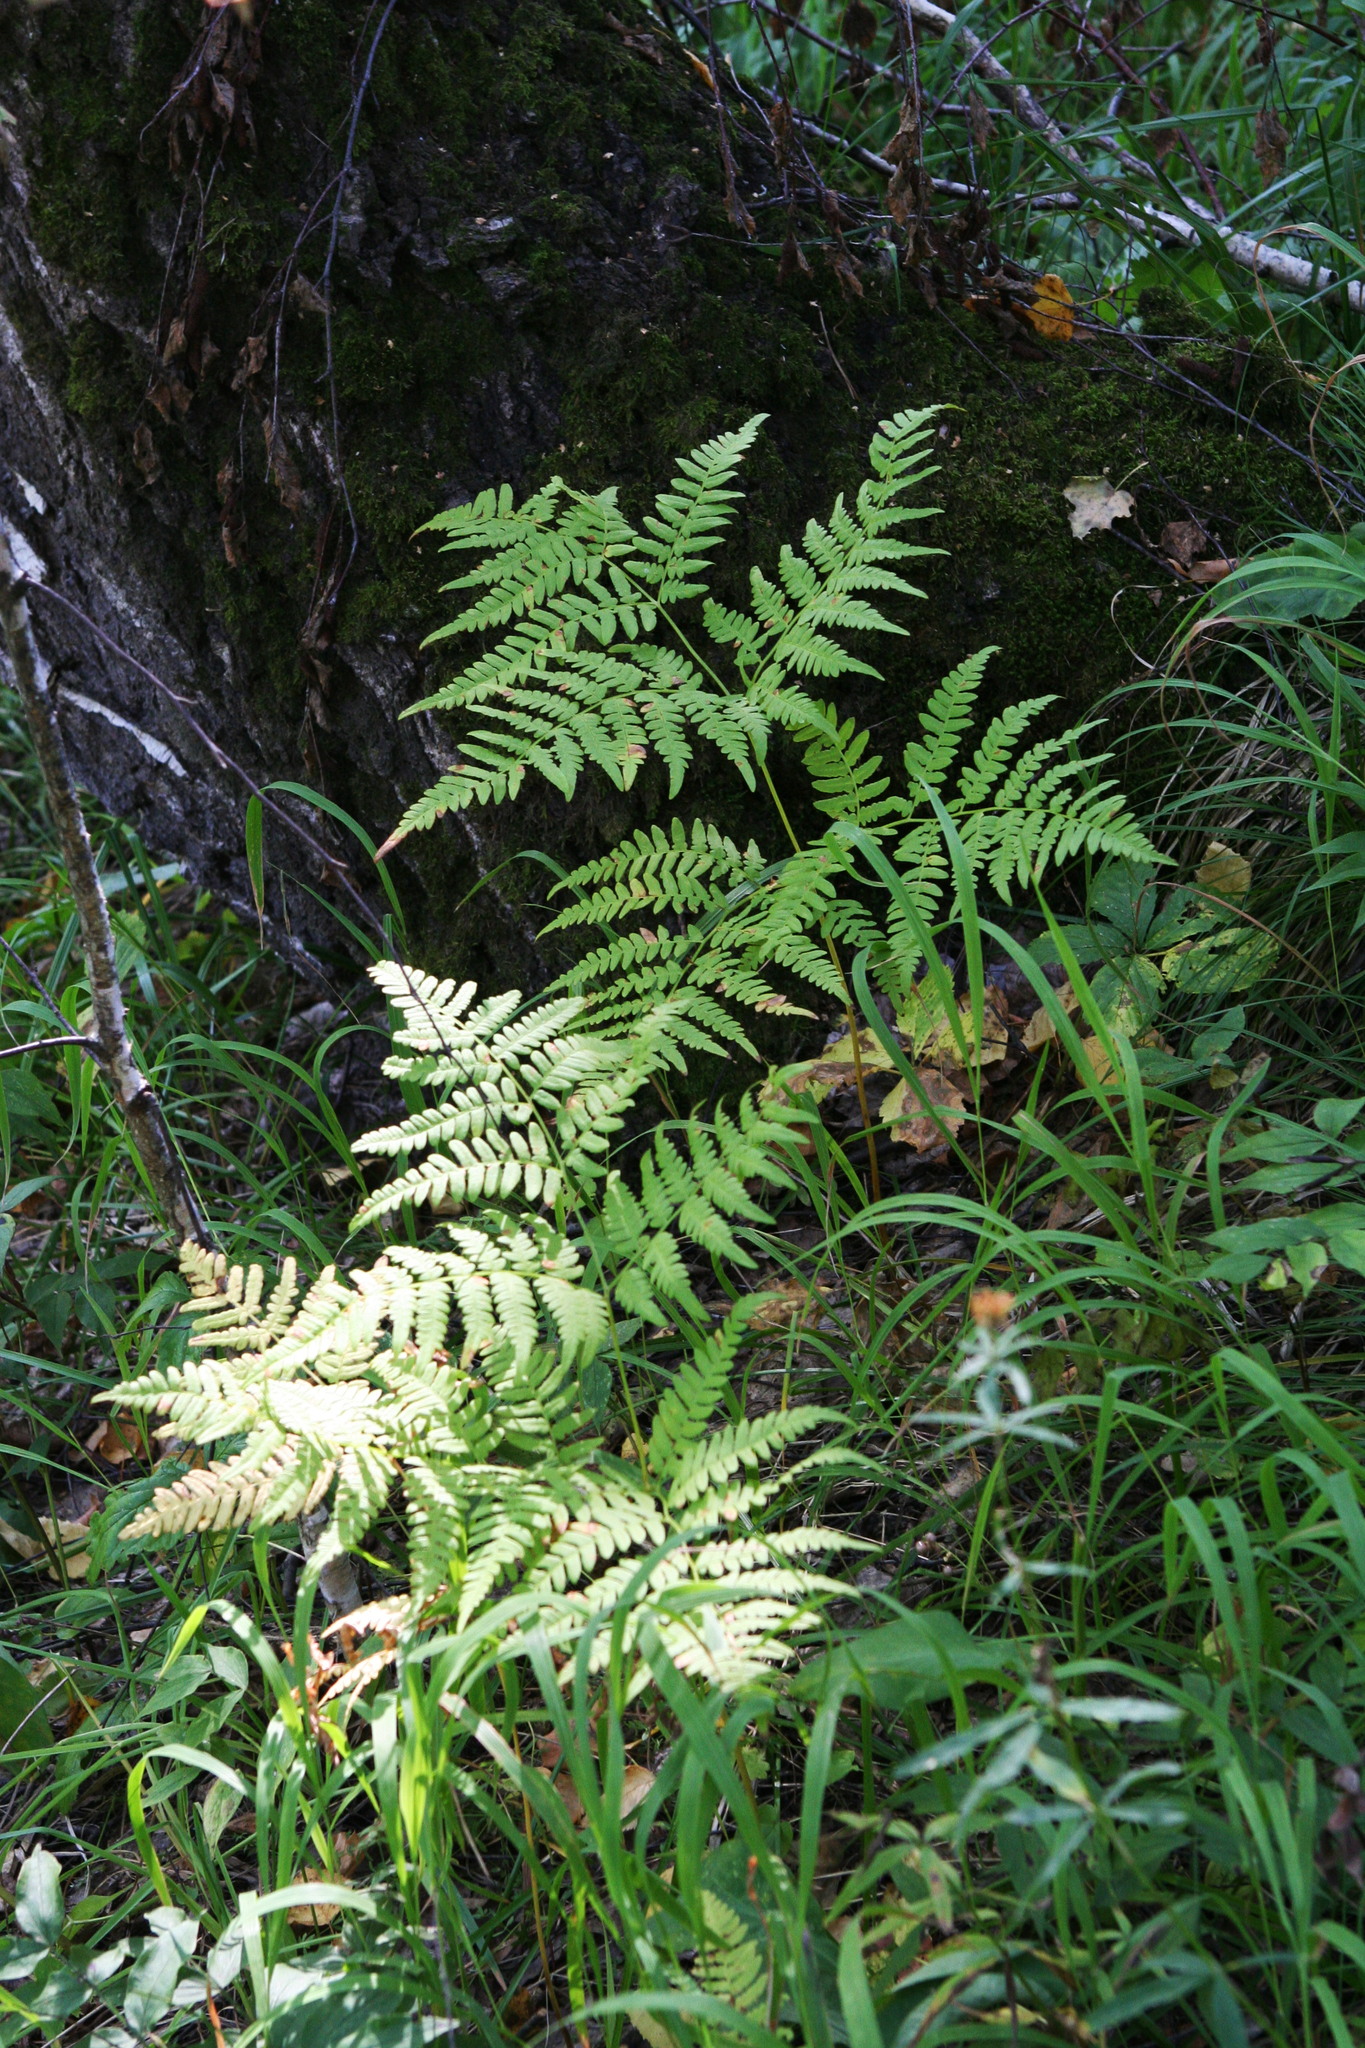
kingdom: Plantae
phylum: Tracheophyta
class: Polypodiopsida
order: Polypodiales
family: Dennstaedtiaceae
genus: Pteridium
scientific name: Pteridium aquilinum
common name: Bracken
